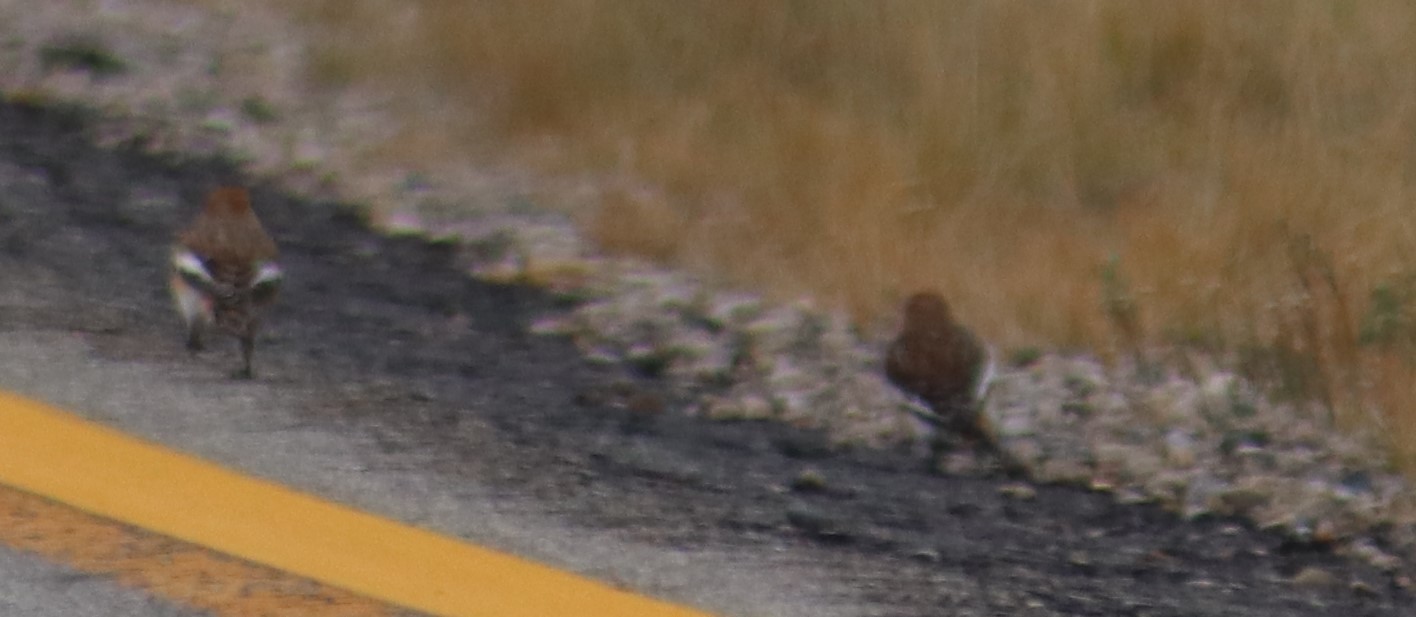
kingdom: Animalia
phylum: Chordata
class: Aves
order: Passeriformes
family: Calcariidae
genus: Plectrophenax
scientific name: Plectrophenax nivalis
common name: Snow bunting
